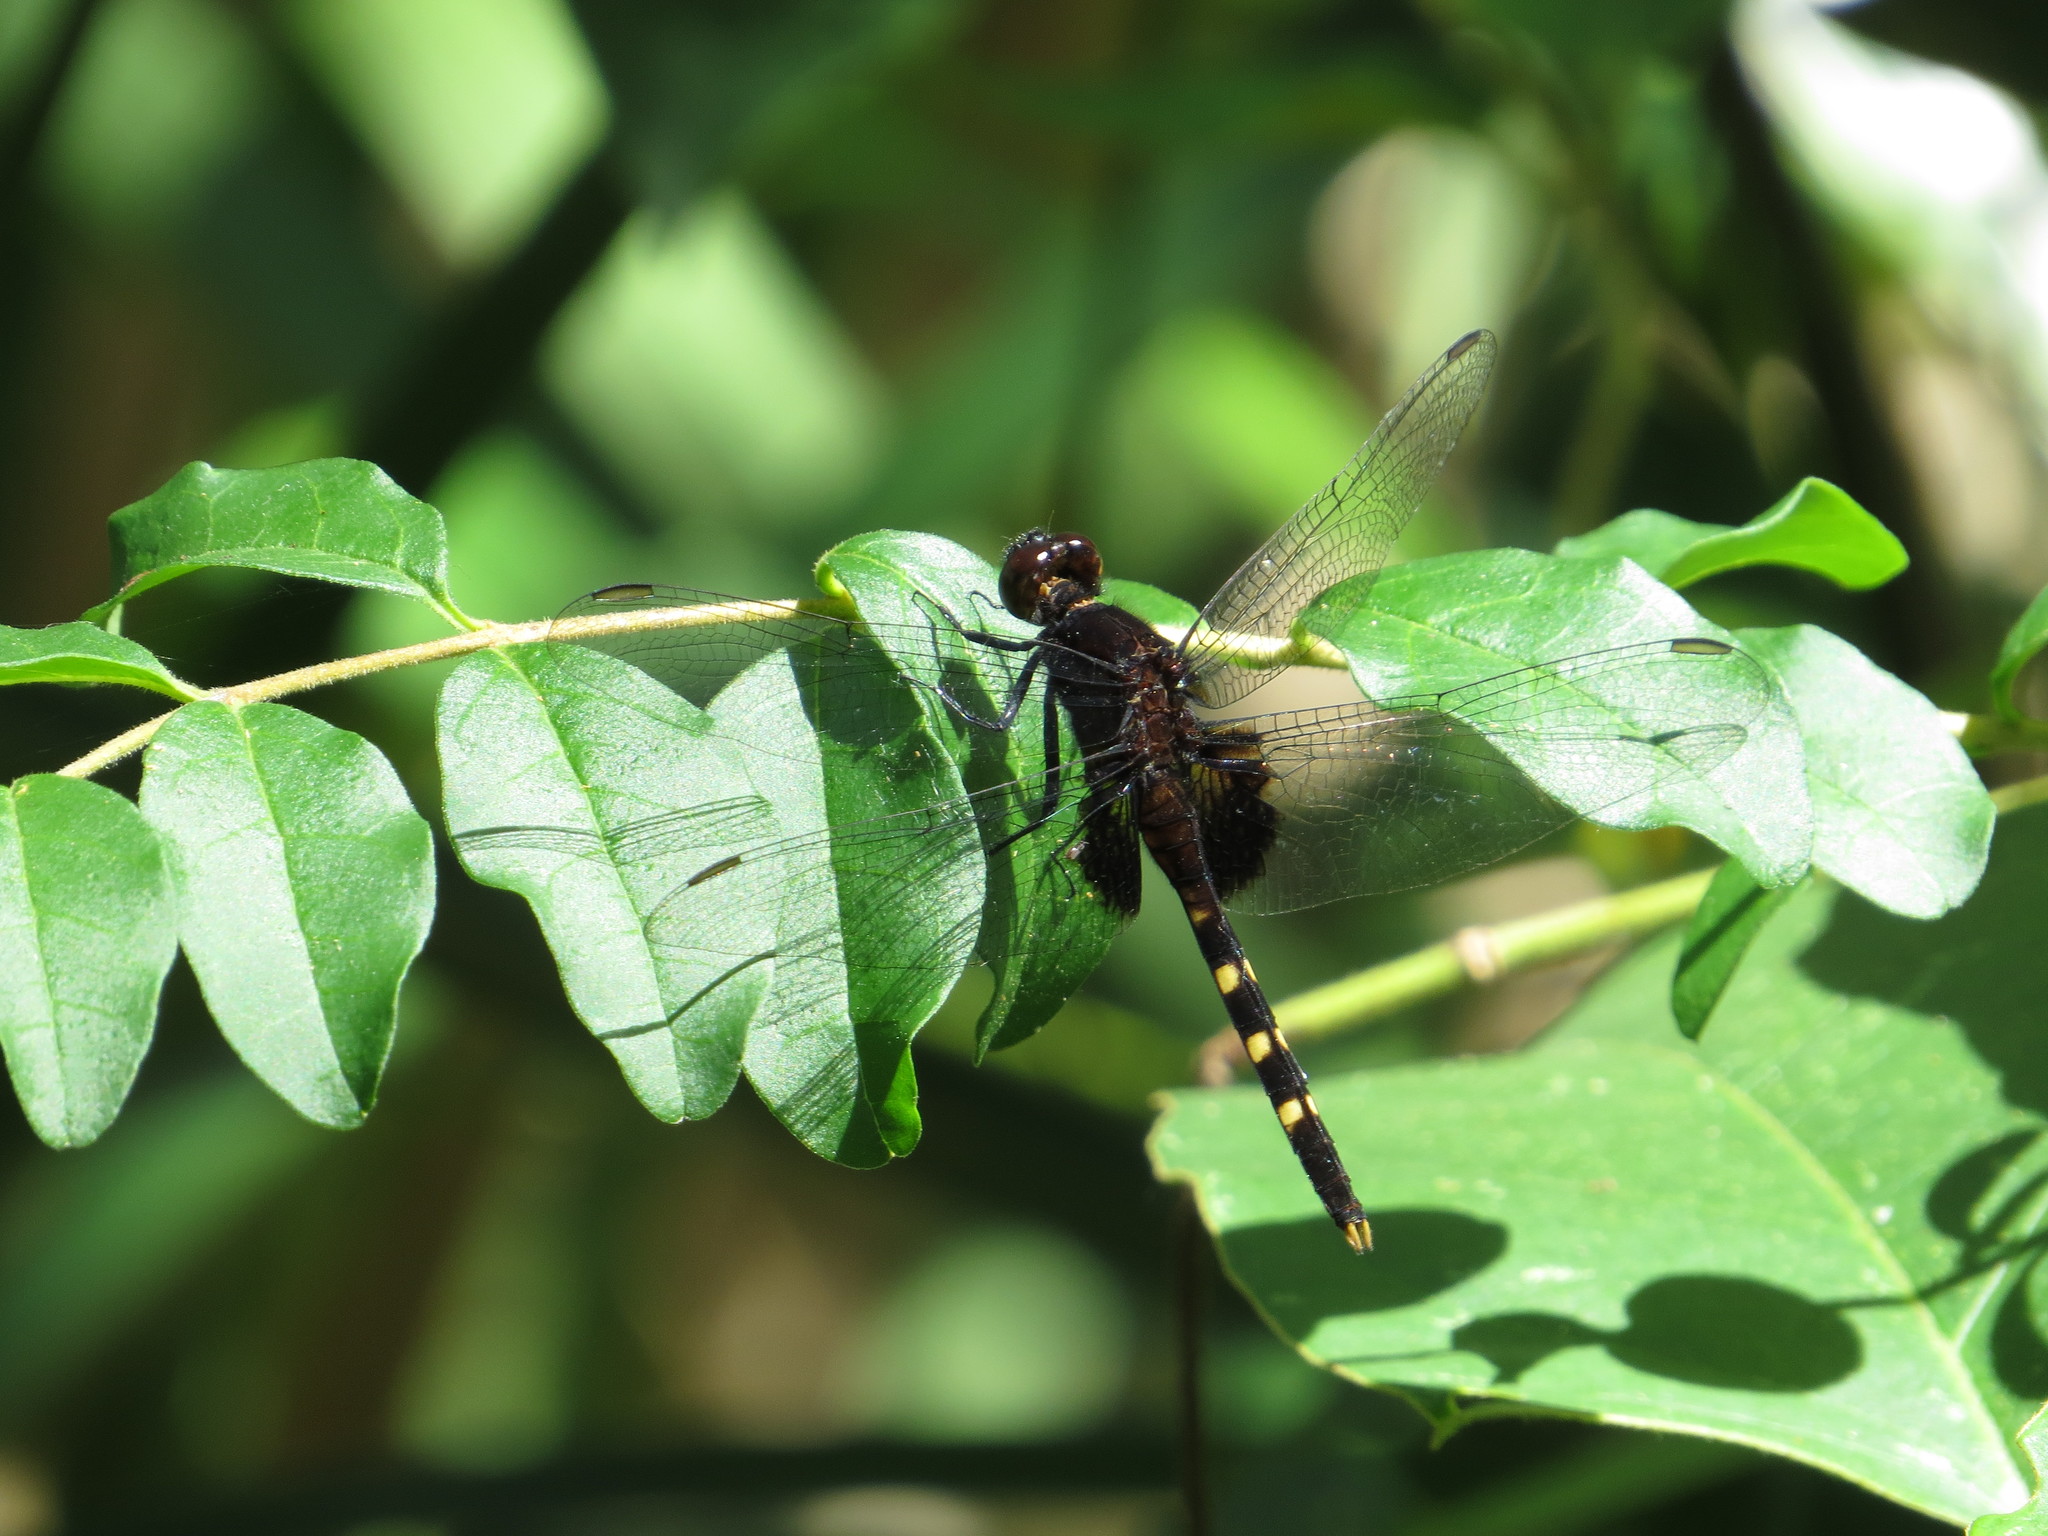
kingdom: Animalia
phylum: Arthropoda
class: Insecta
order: Odonata
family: Libellulidae
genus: Erythemis
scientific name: Erythemis attala
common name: Black pondhawk
